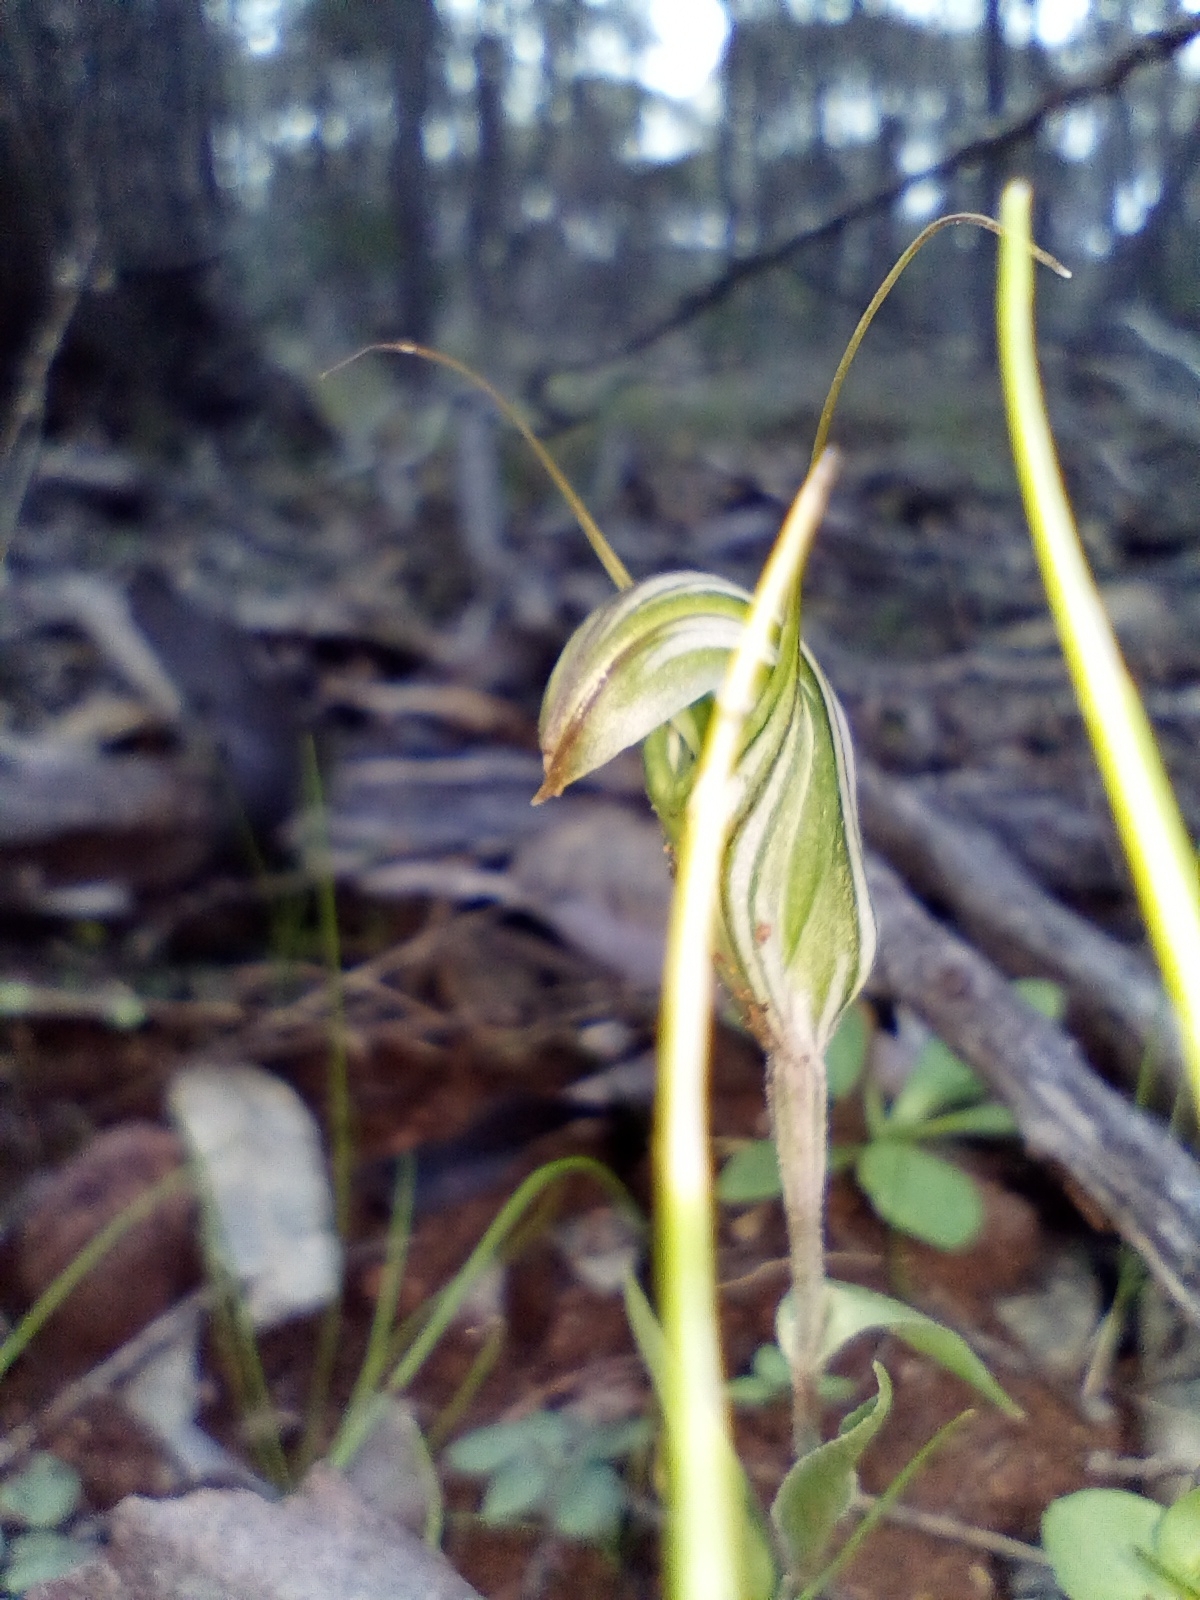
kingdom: Plantae
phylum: Tracheophyta
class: Liliopsida
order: Asparagales
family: Orchidaceae
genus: Pterostylis
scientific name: Pterostylis scabra
